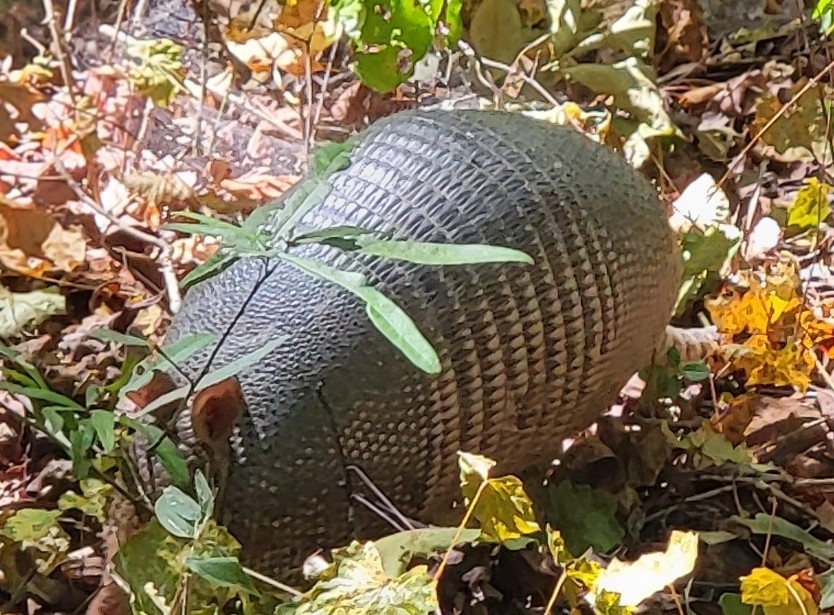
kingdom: Animalia
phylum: Chordata
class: Mammalia
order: Cingulata
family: Dasypodidae
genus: Dasypus
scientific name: Dasypus novemcinctus
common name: Nine-banded armadillo
